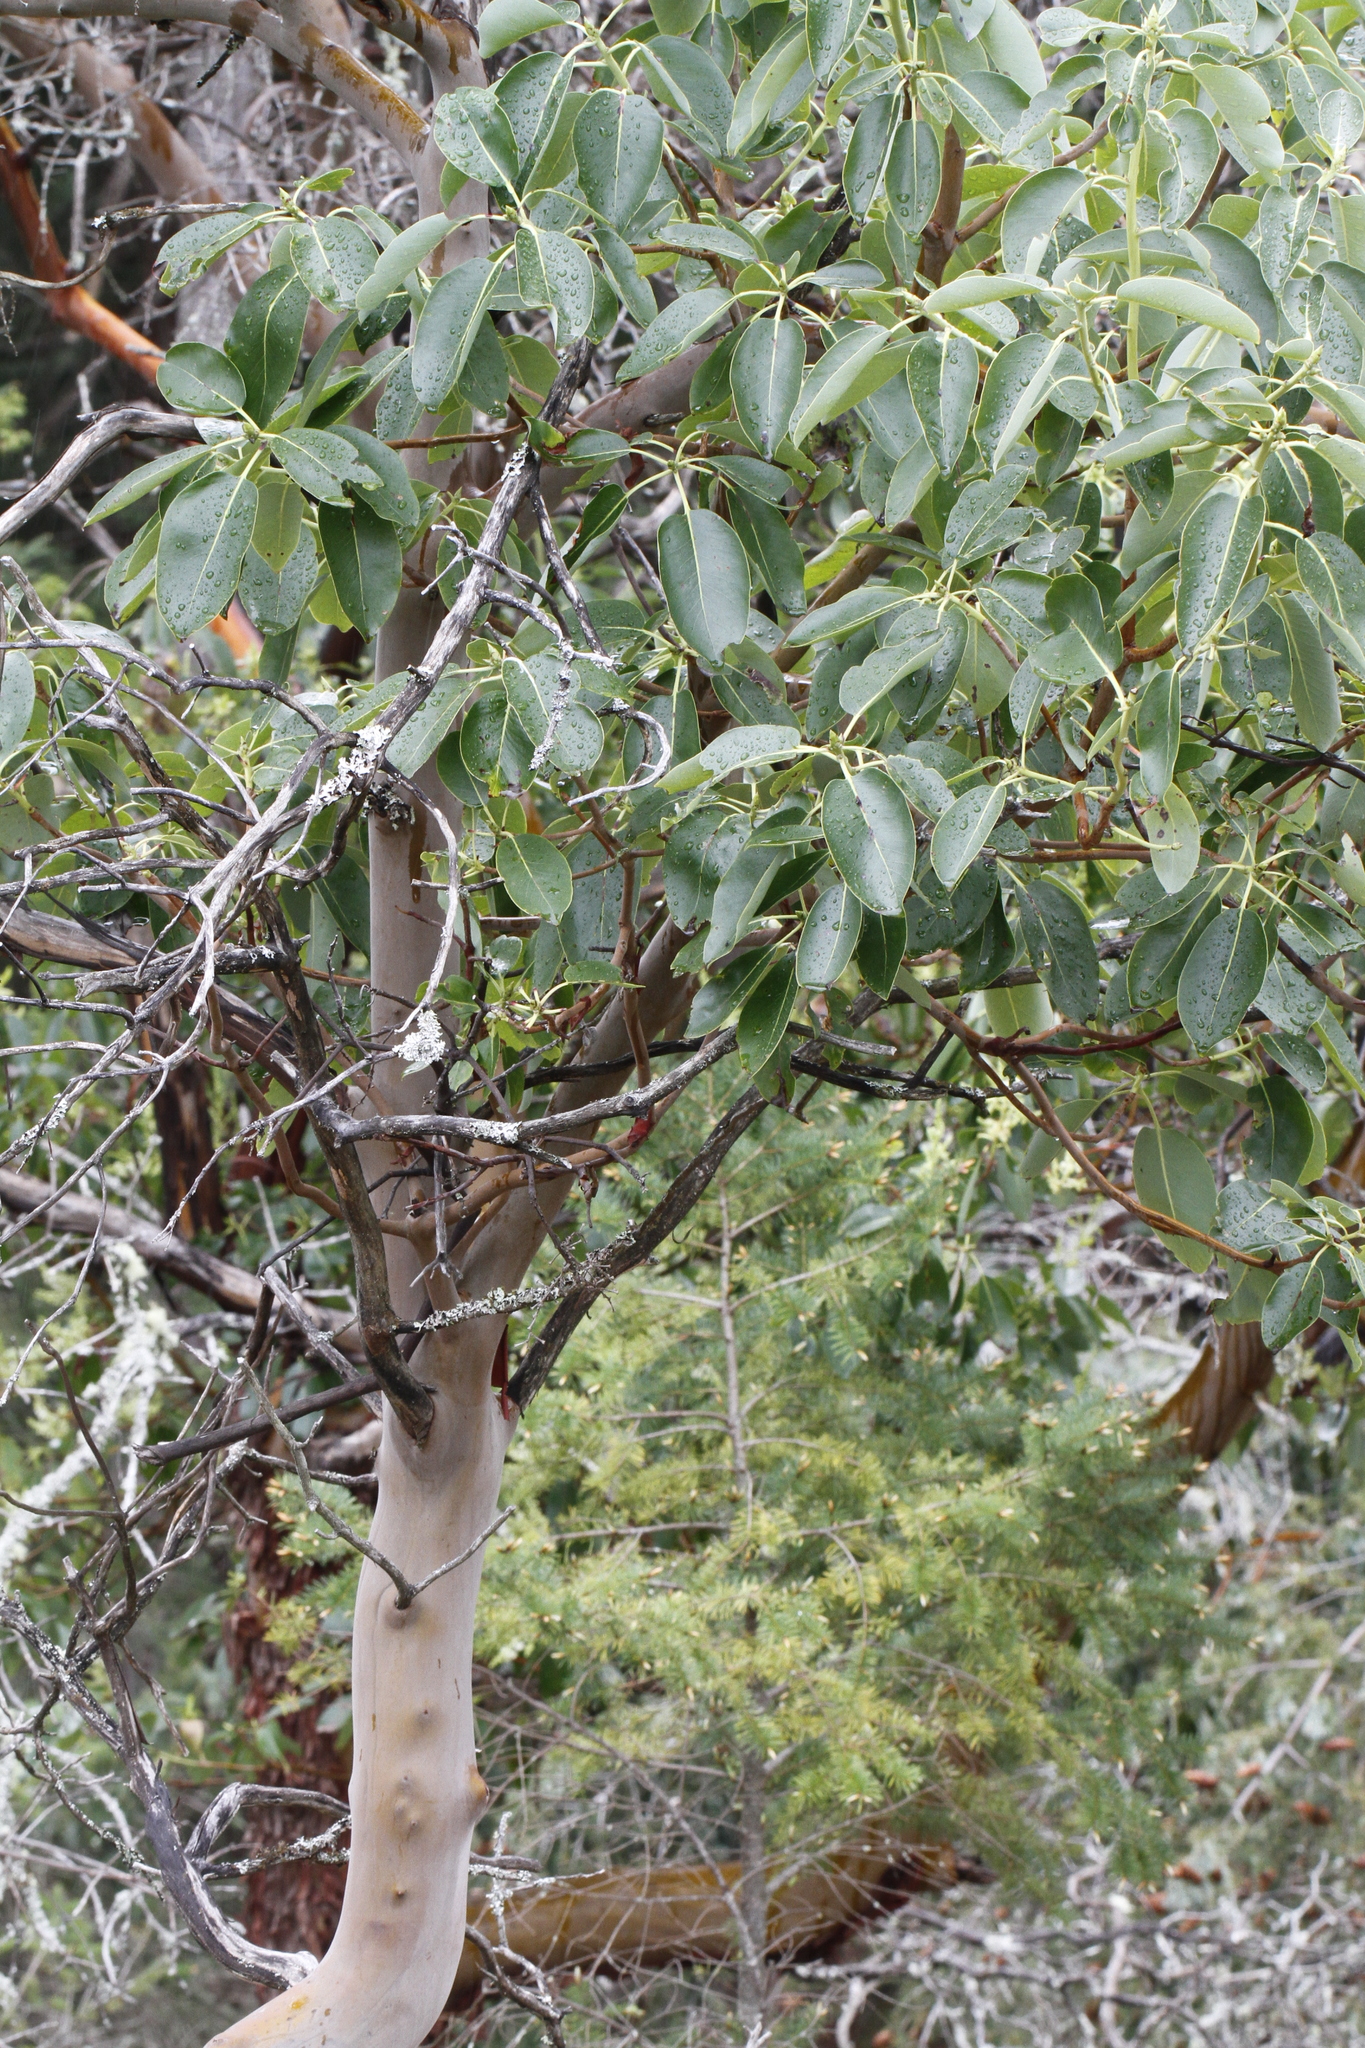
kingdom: Plantae
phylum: Tracheophyta
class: Magnoliopsida
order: Ericales
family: Ericaceae
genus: Arbutus
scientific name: Arbutus menziesii
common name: Pacific madrone
